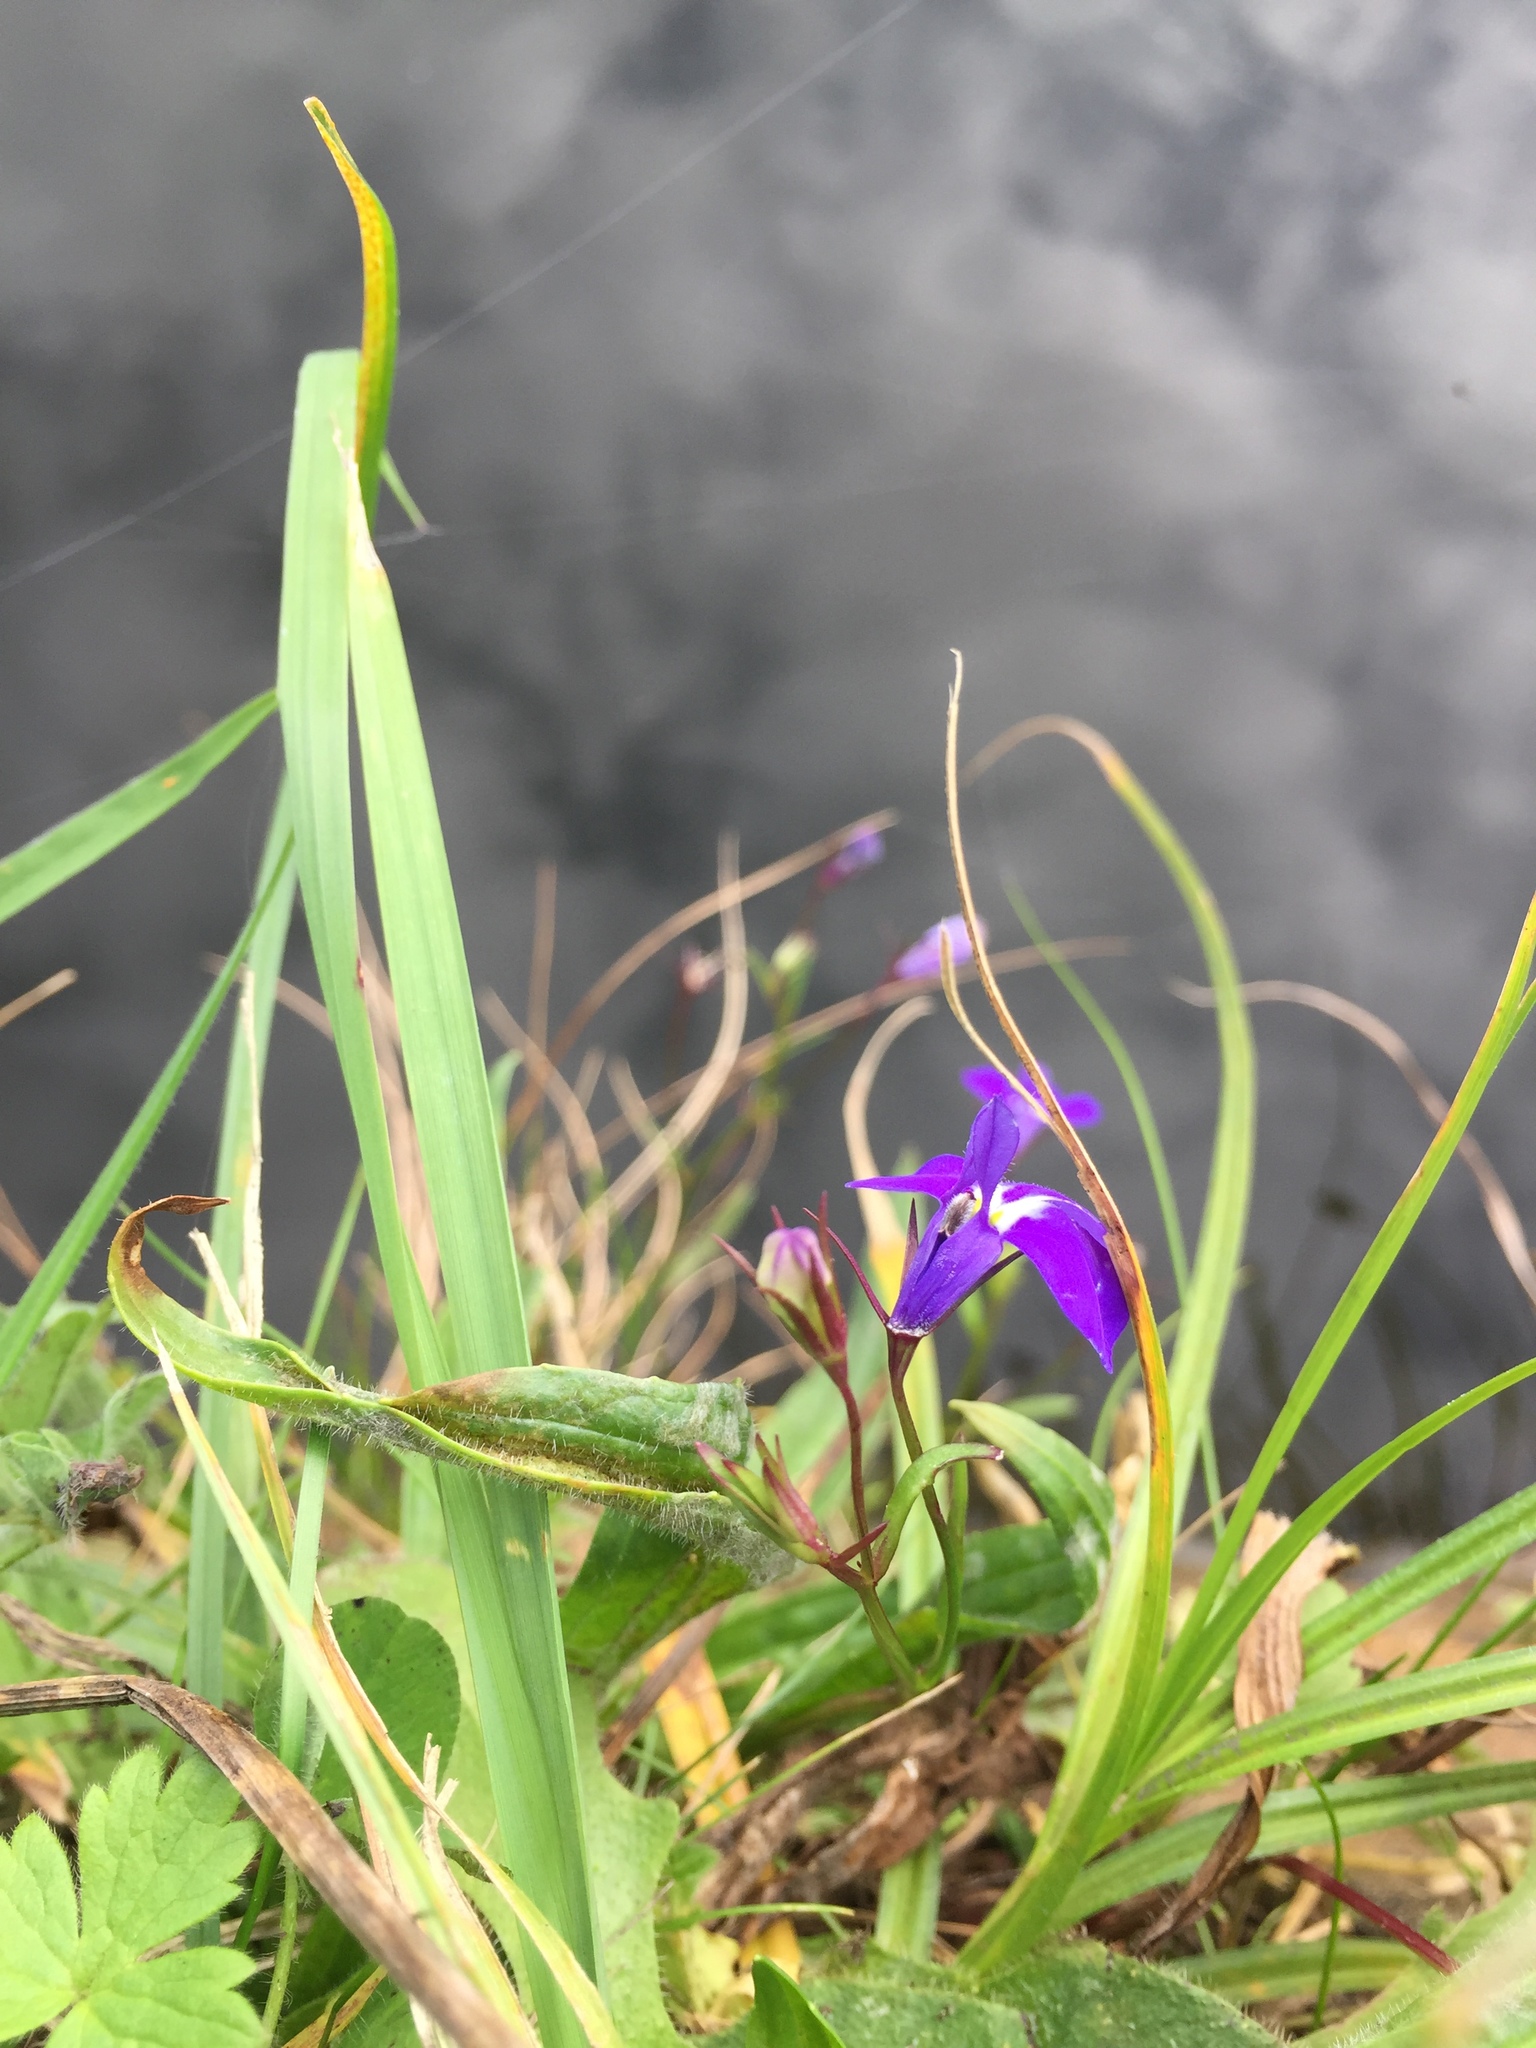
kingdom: Plantae
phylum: Tracheophyta
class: Magnoliopsida
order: Asterales
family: Campanulaceae
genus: Lobelia
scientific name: Lobelia erinus
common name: Edging lobelia
